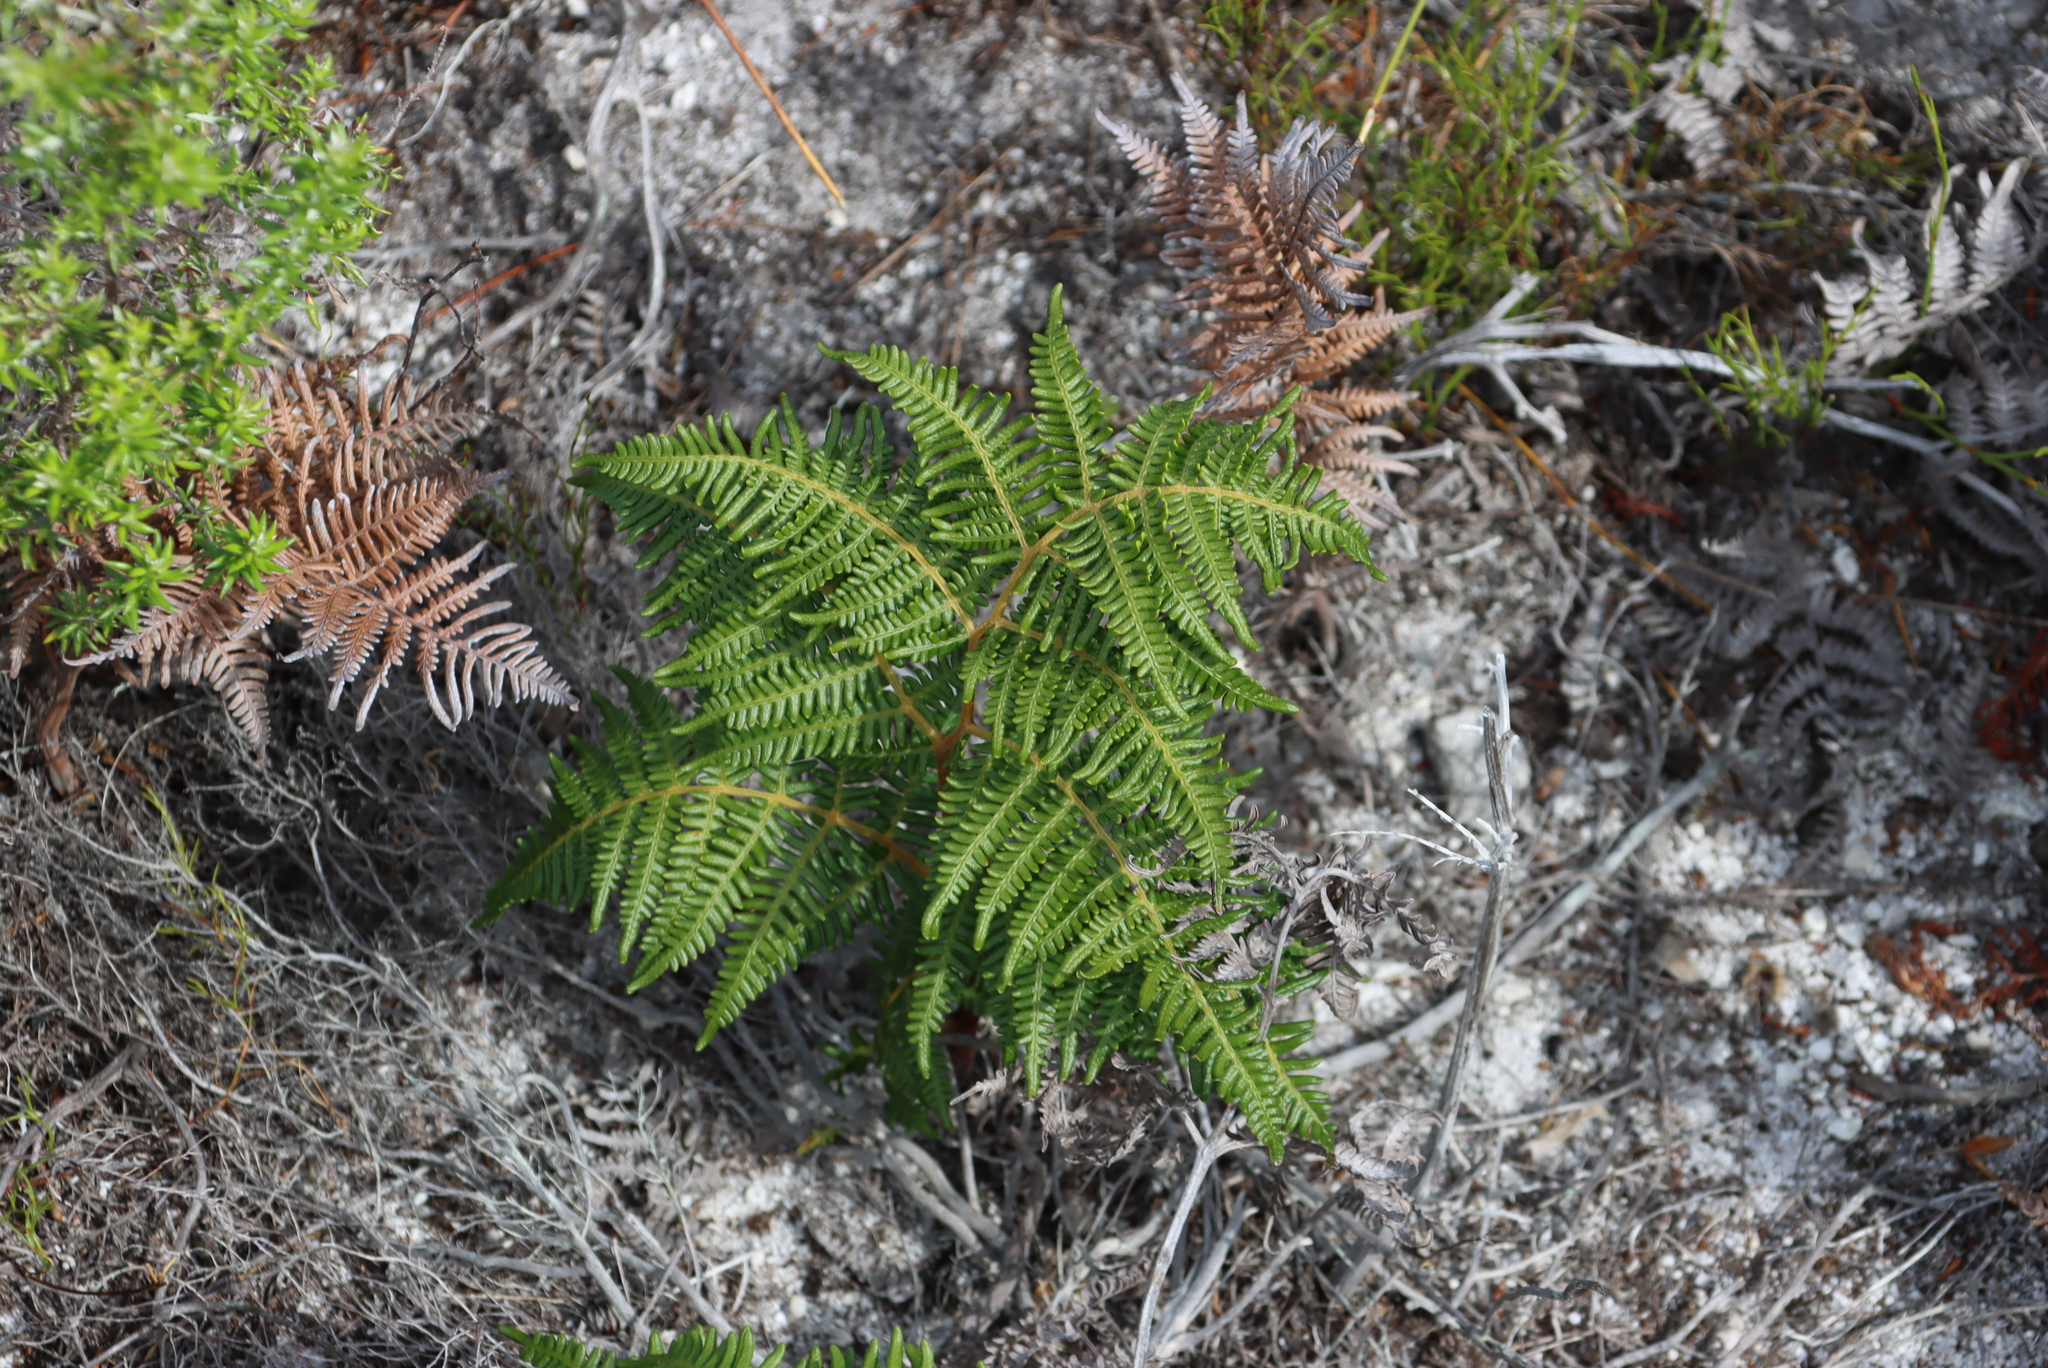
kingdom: Plantae
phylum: Tracheophyta
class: Polypodiopsida
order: Polypodiales
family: Dennstaedtiaceae
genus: Pteridium
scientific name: Pteridium aquilinum
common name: Bracken
